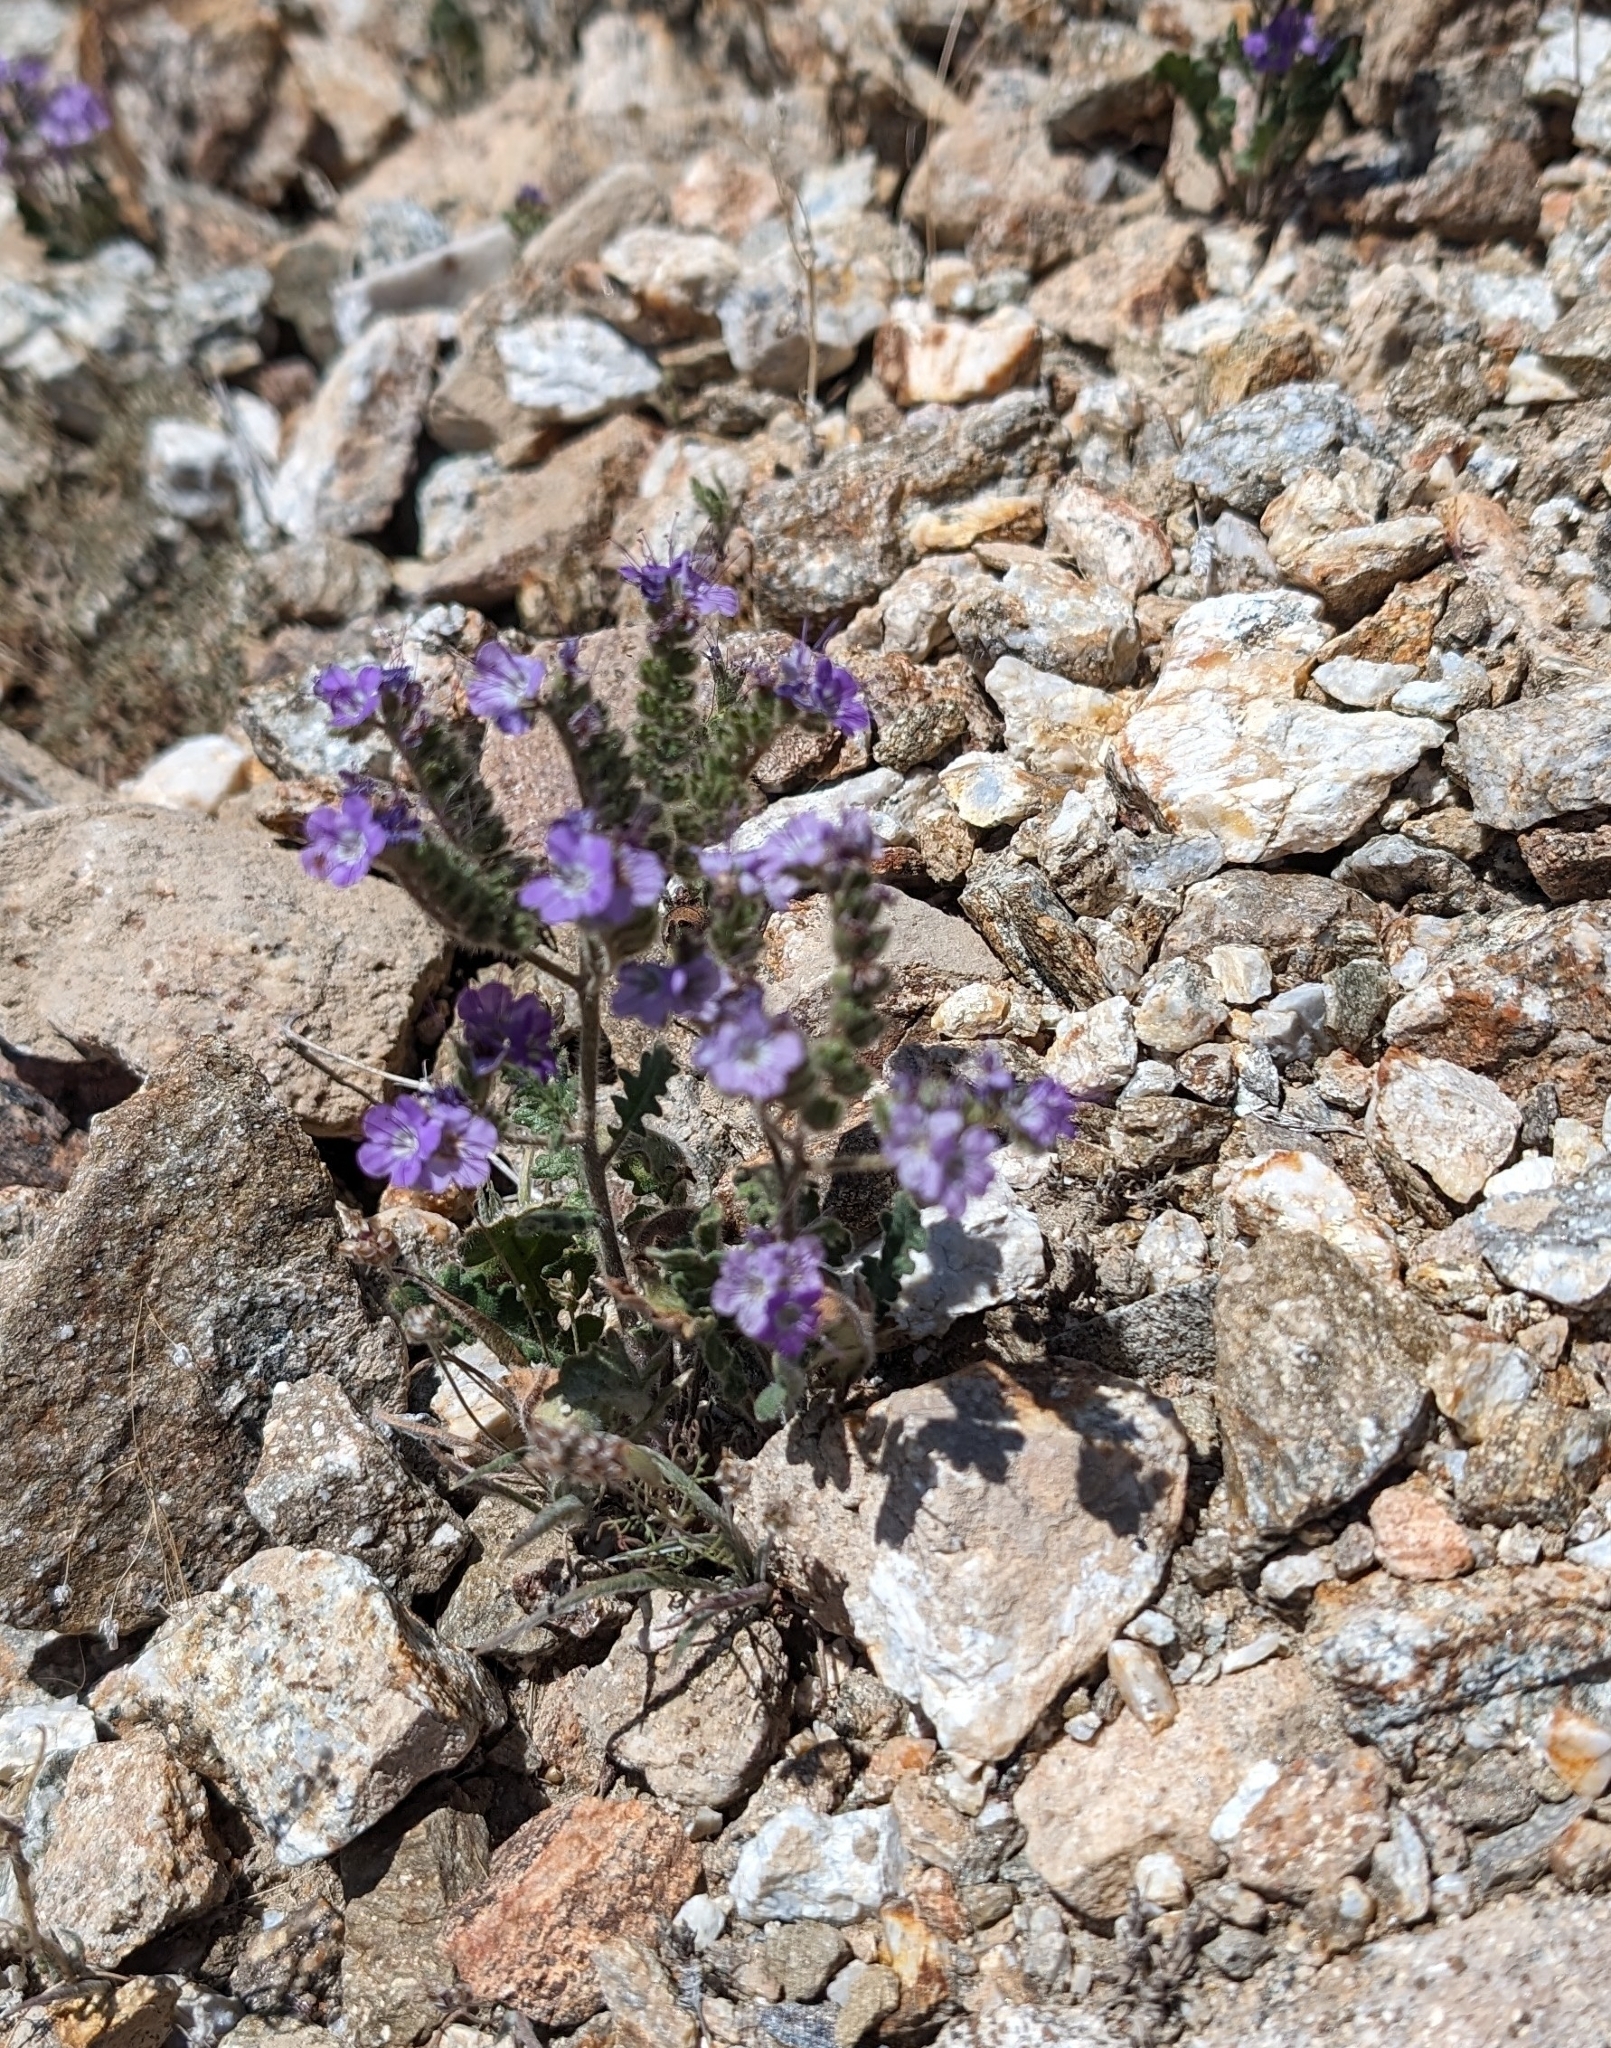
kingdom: Plantae
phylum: Tracheophyta
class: Magnoliopsida
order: Boraginales
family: Hydrophyllaceae
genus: Phacelia
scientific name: Phacelia crenulata
